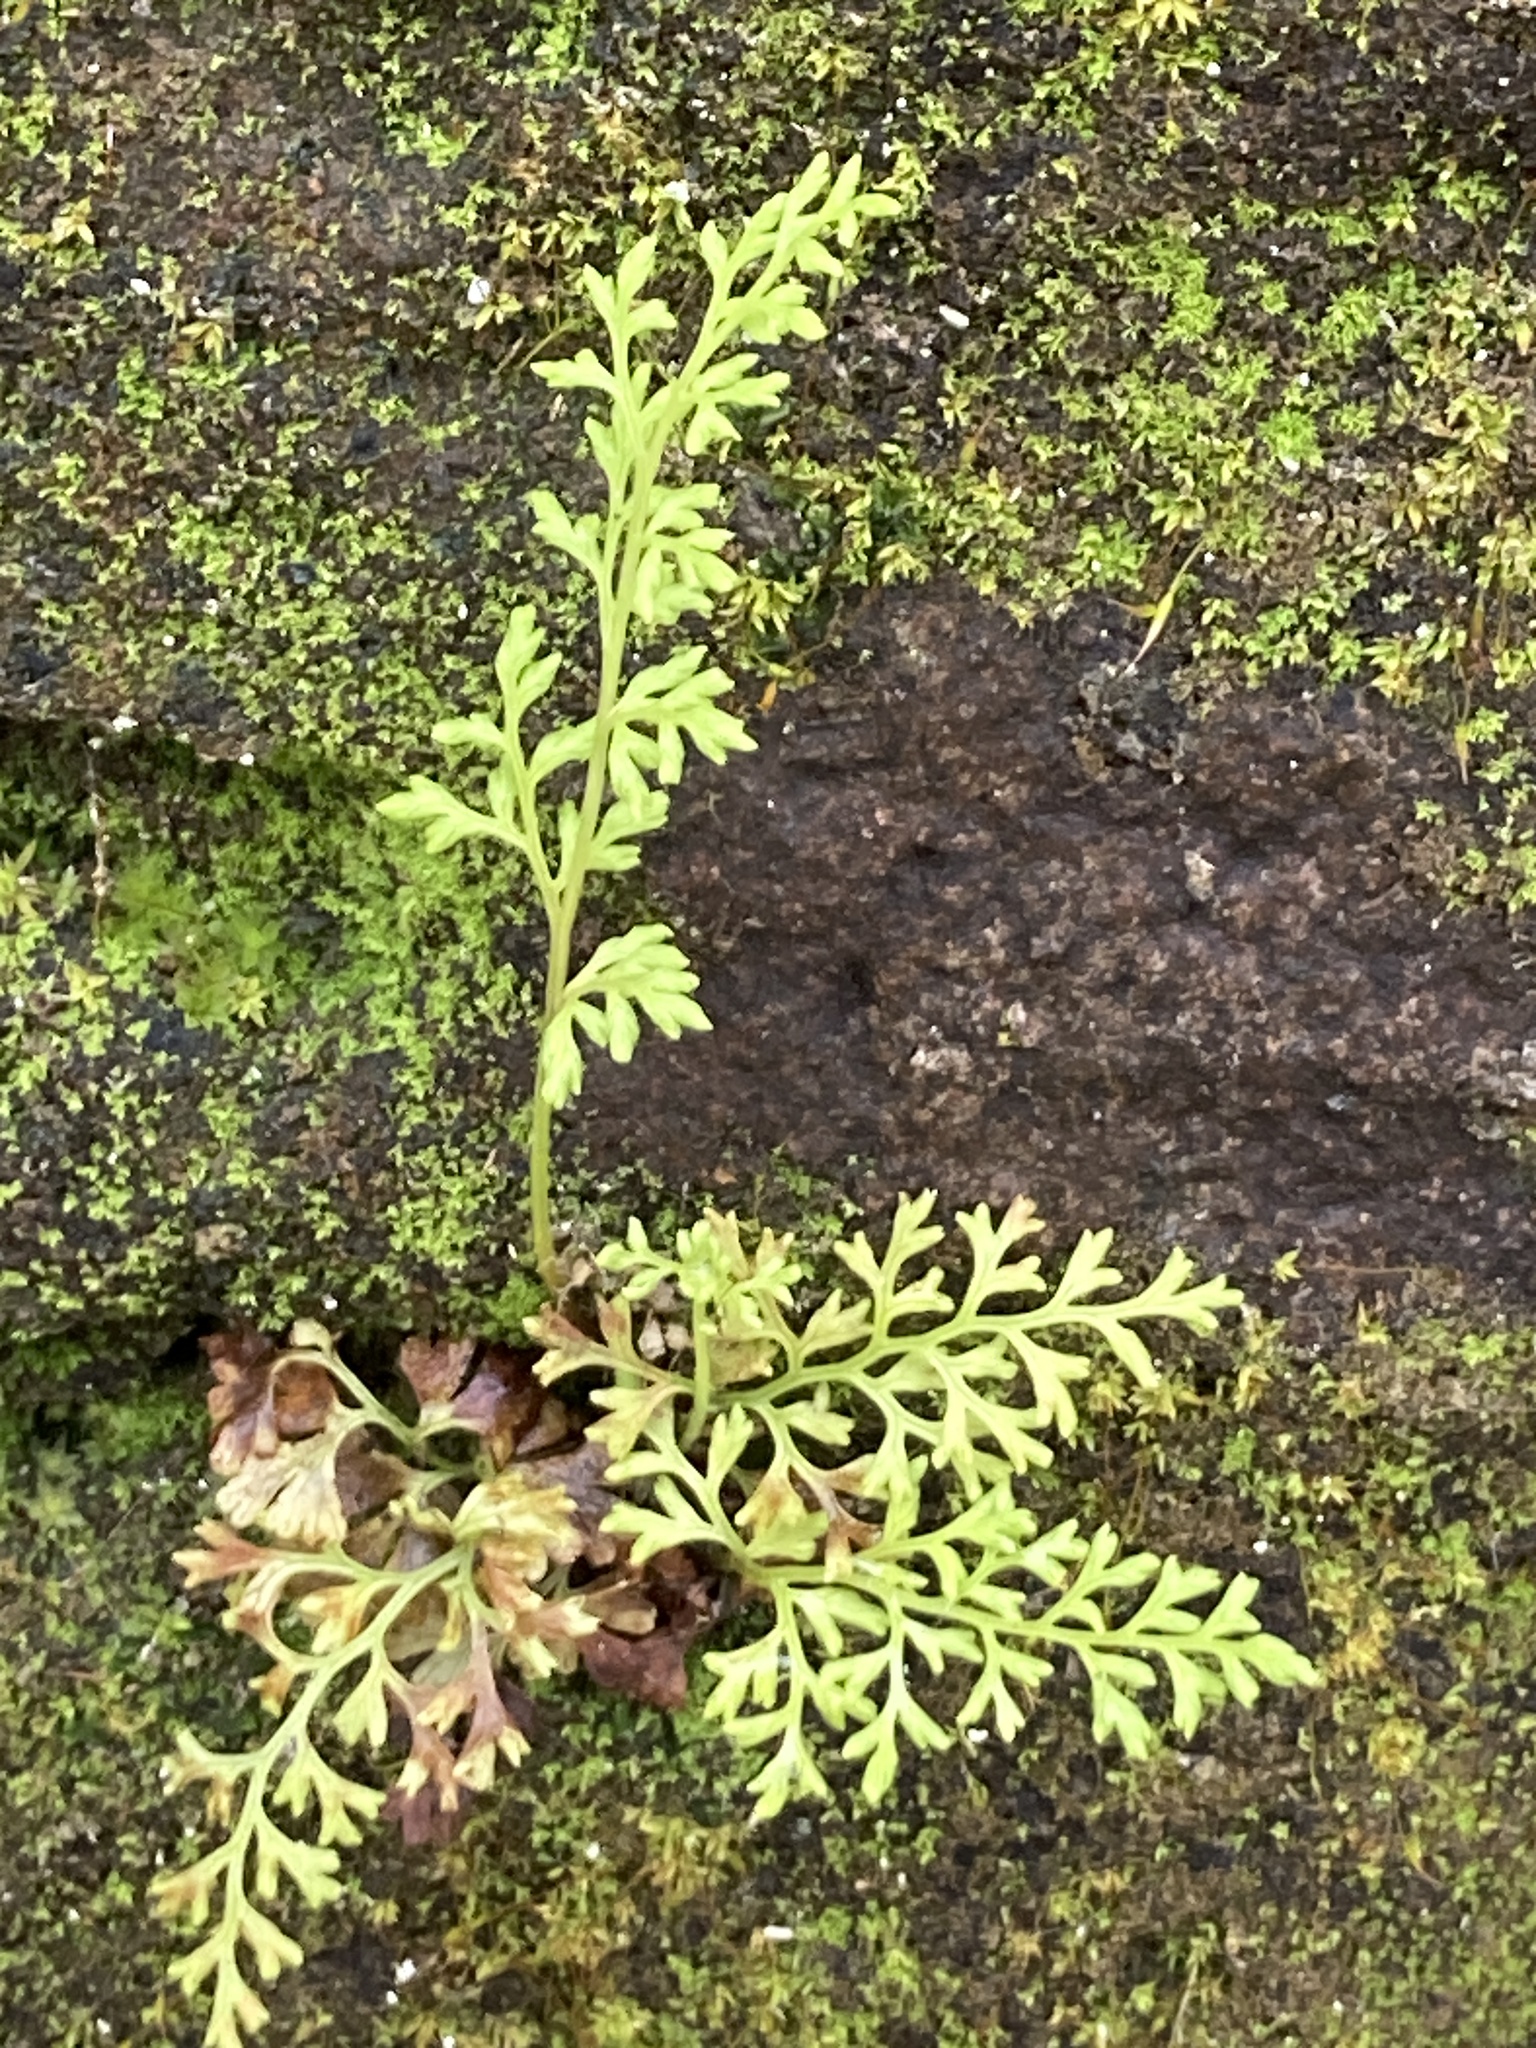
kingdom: Plantae
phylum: Tracheophyta
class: Polypodiopsida
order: Polypodiales
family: Pteridaceae
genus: Anogramma
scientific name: Anogramma leptophylla
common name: Jersey fern
